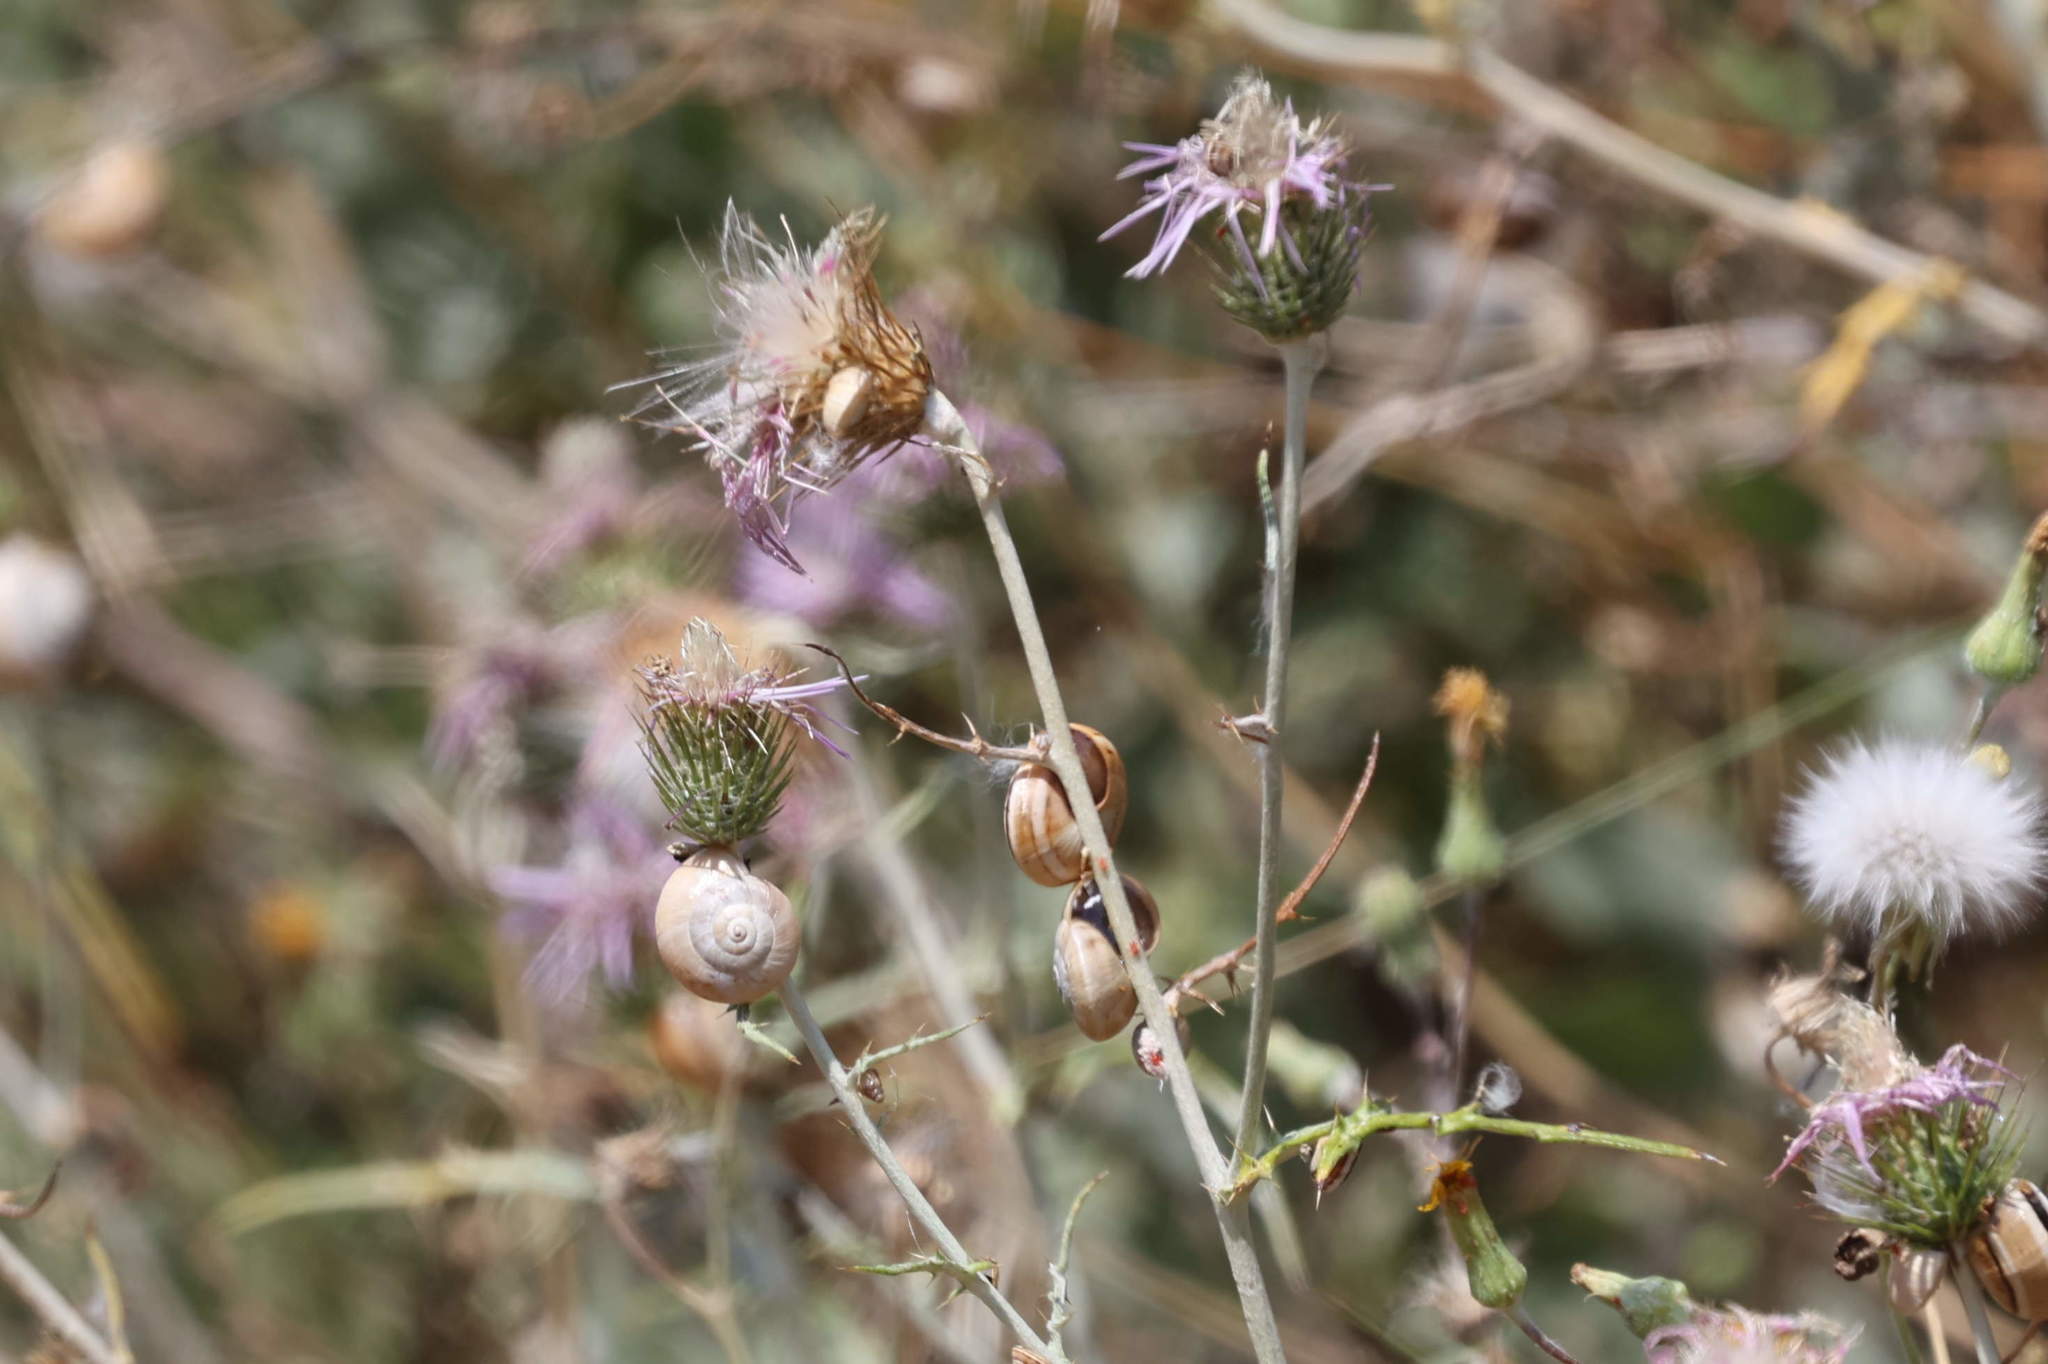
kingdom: Animalia
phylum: Mollusca
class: Gastropoda
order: Stylommatophora
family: Helicidae
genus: Theba
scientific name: Theba pisana
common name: White snail
